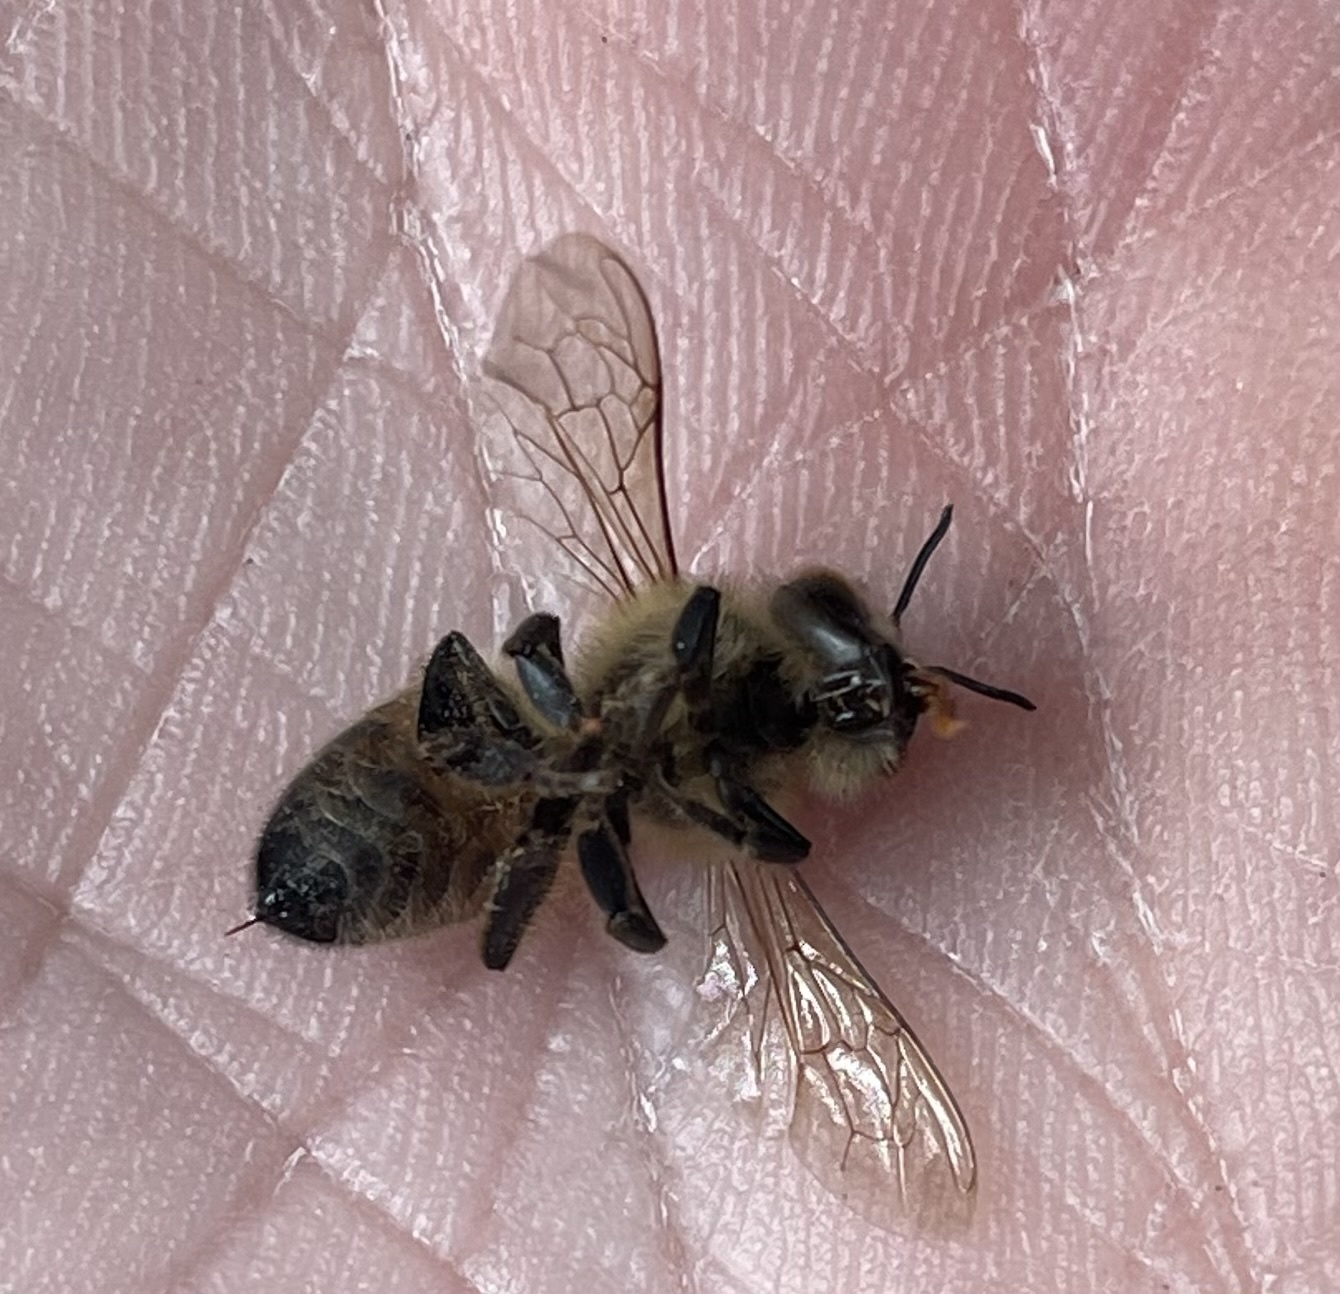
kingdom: Animalia
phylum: Arthropoda
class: Insecta
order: Hymenoptera
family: Apidae
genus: Apis
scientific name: Apis mellifera
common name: Honey bee
